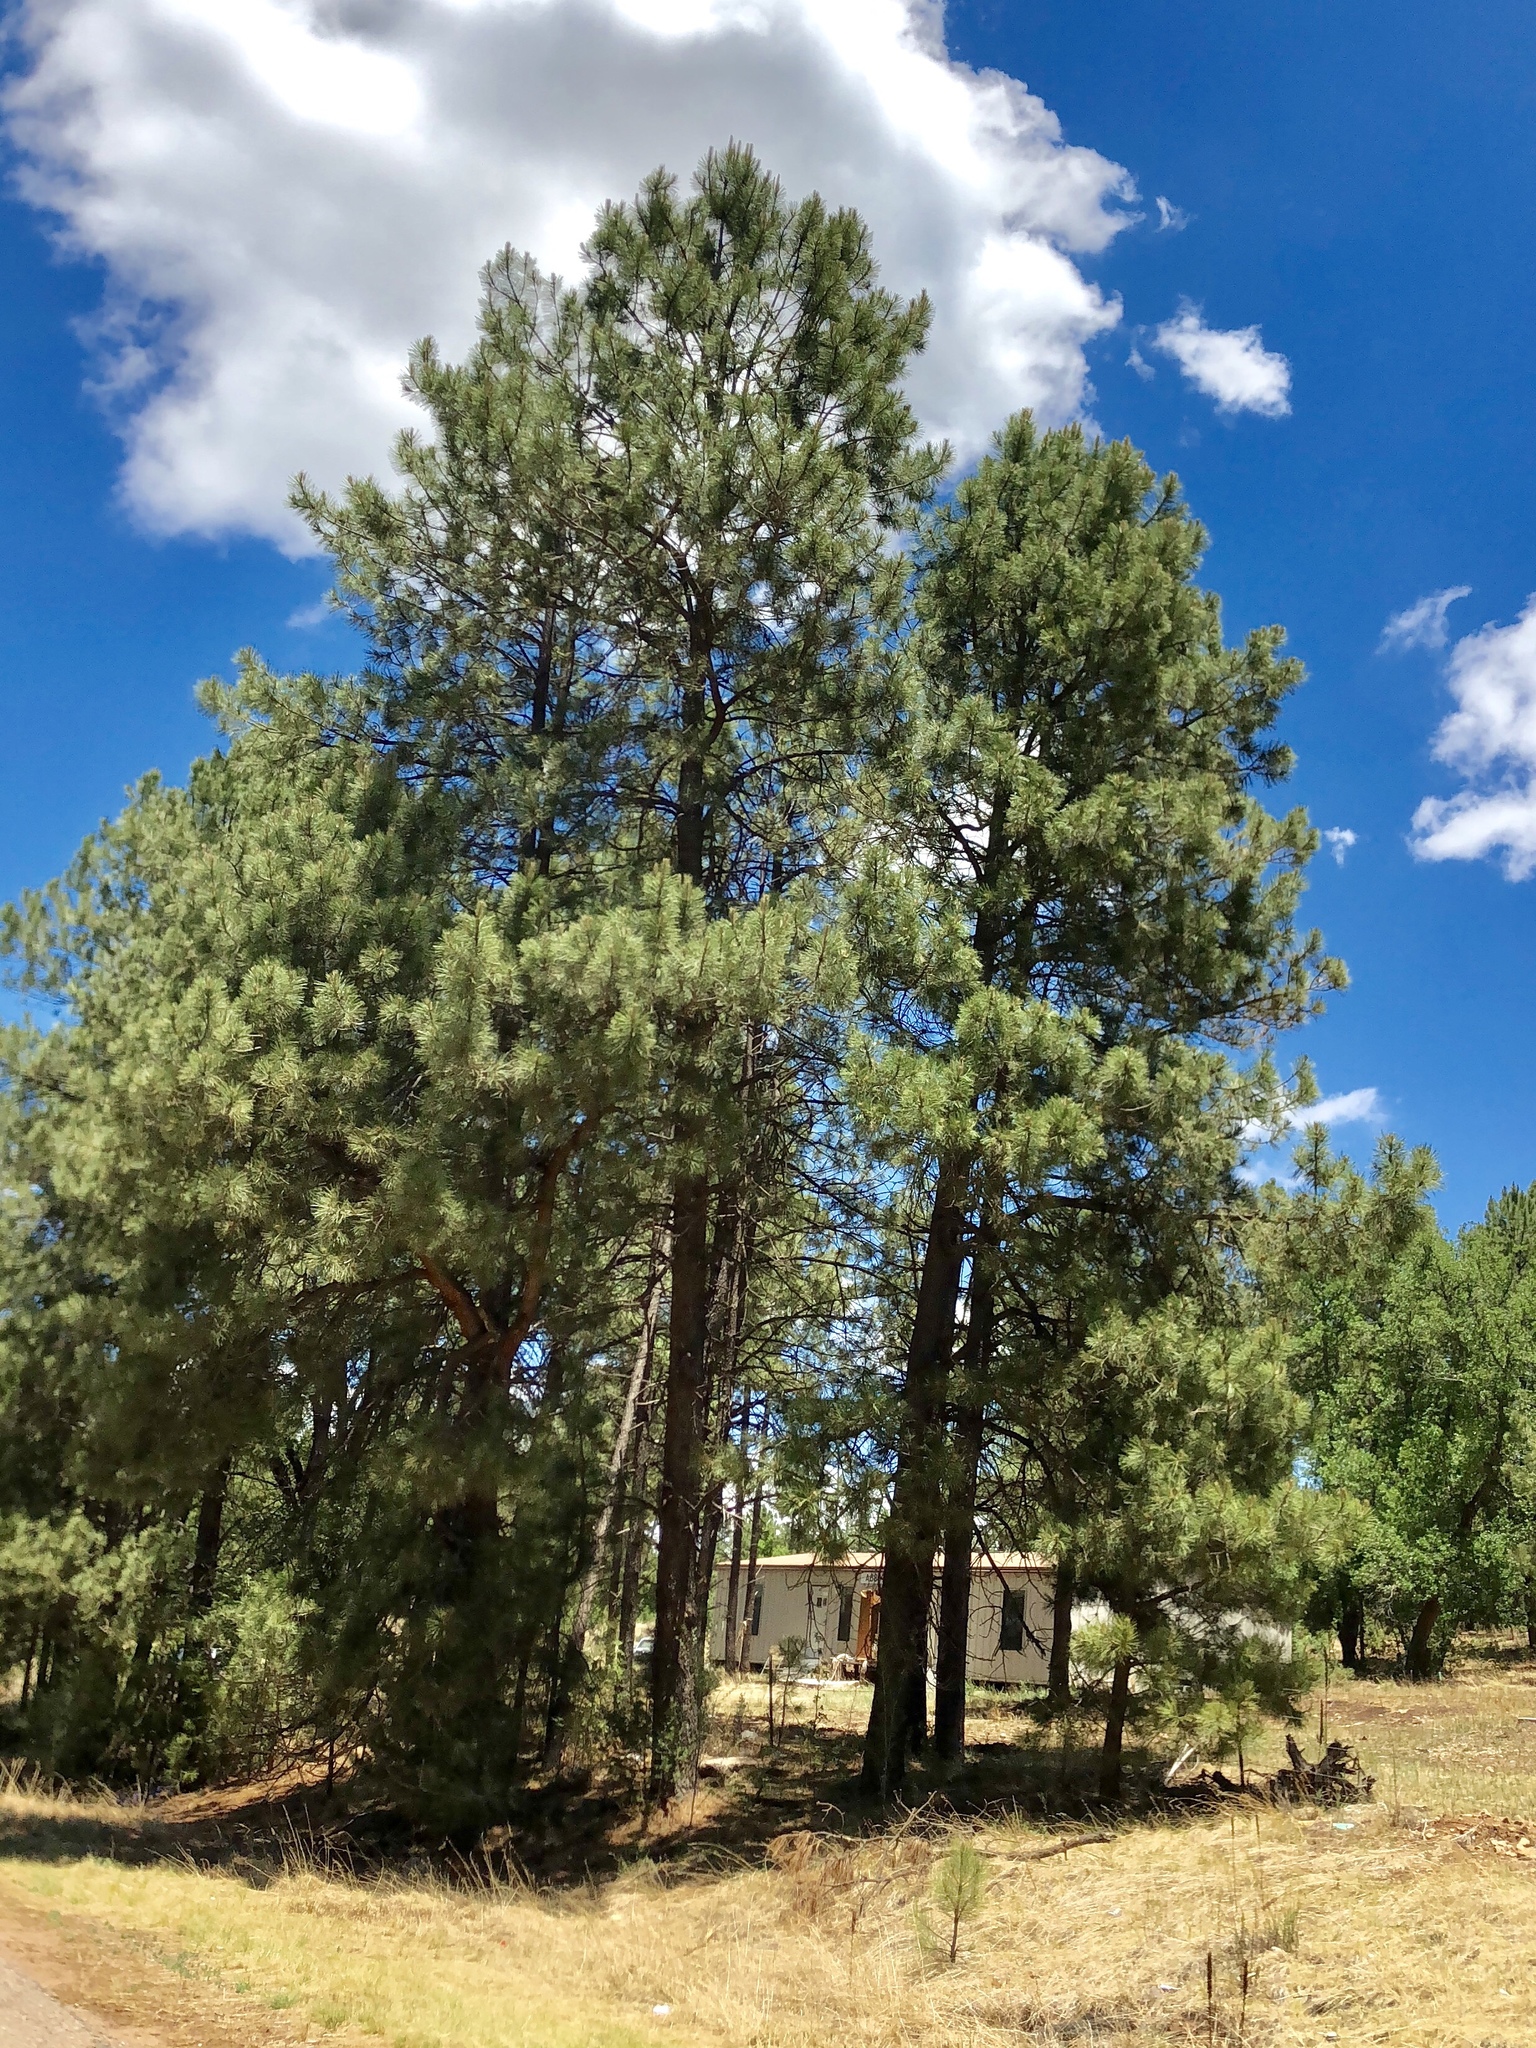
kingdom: Plantae
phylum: Tracheophyta
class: Pinopsida
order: Pinales
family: Pinaceae
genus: Pinus
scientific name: Pinus ponderosa
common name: Western yellow-pine
